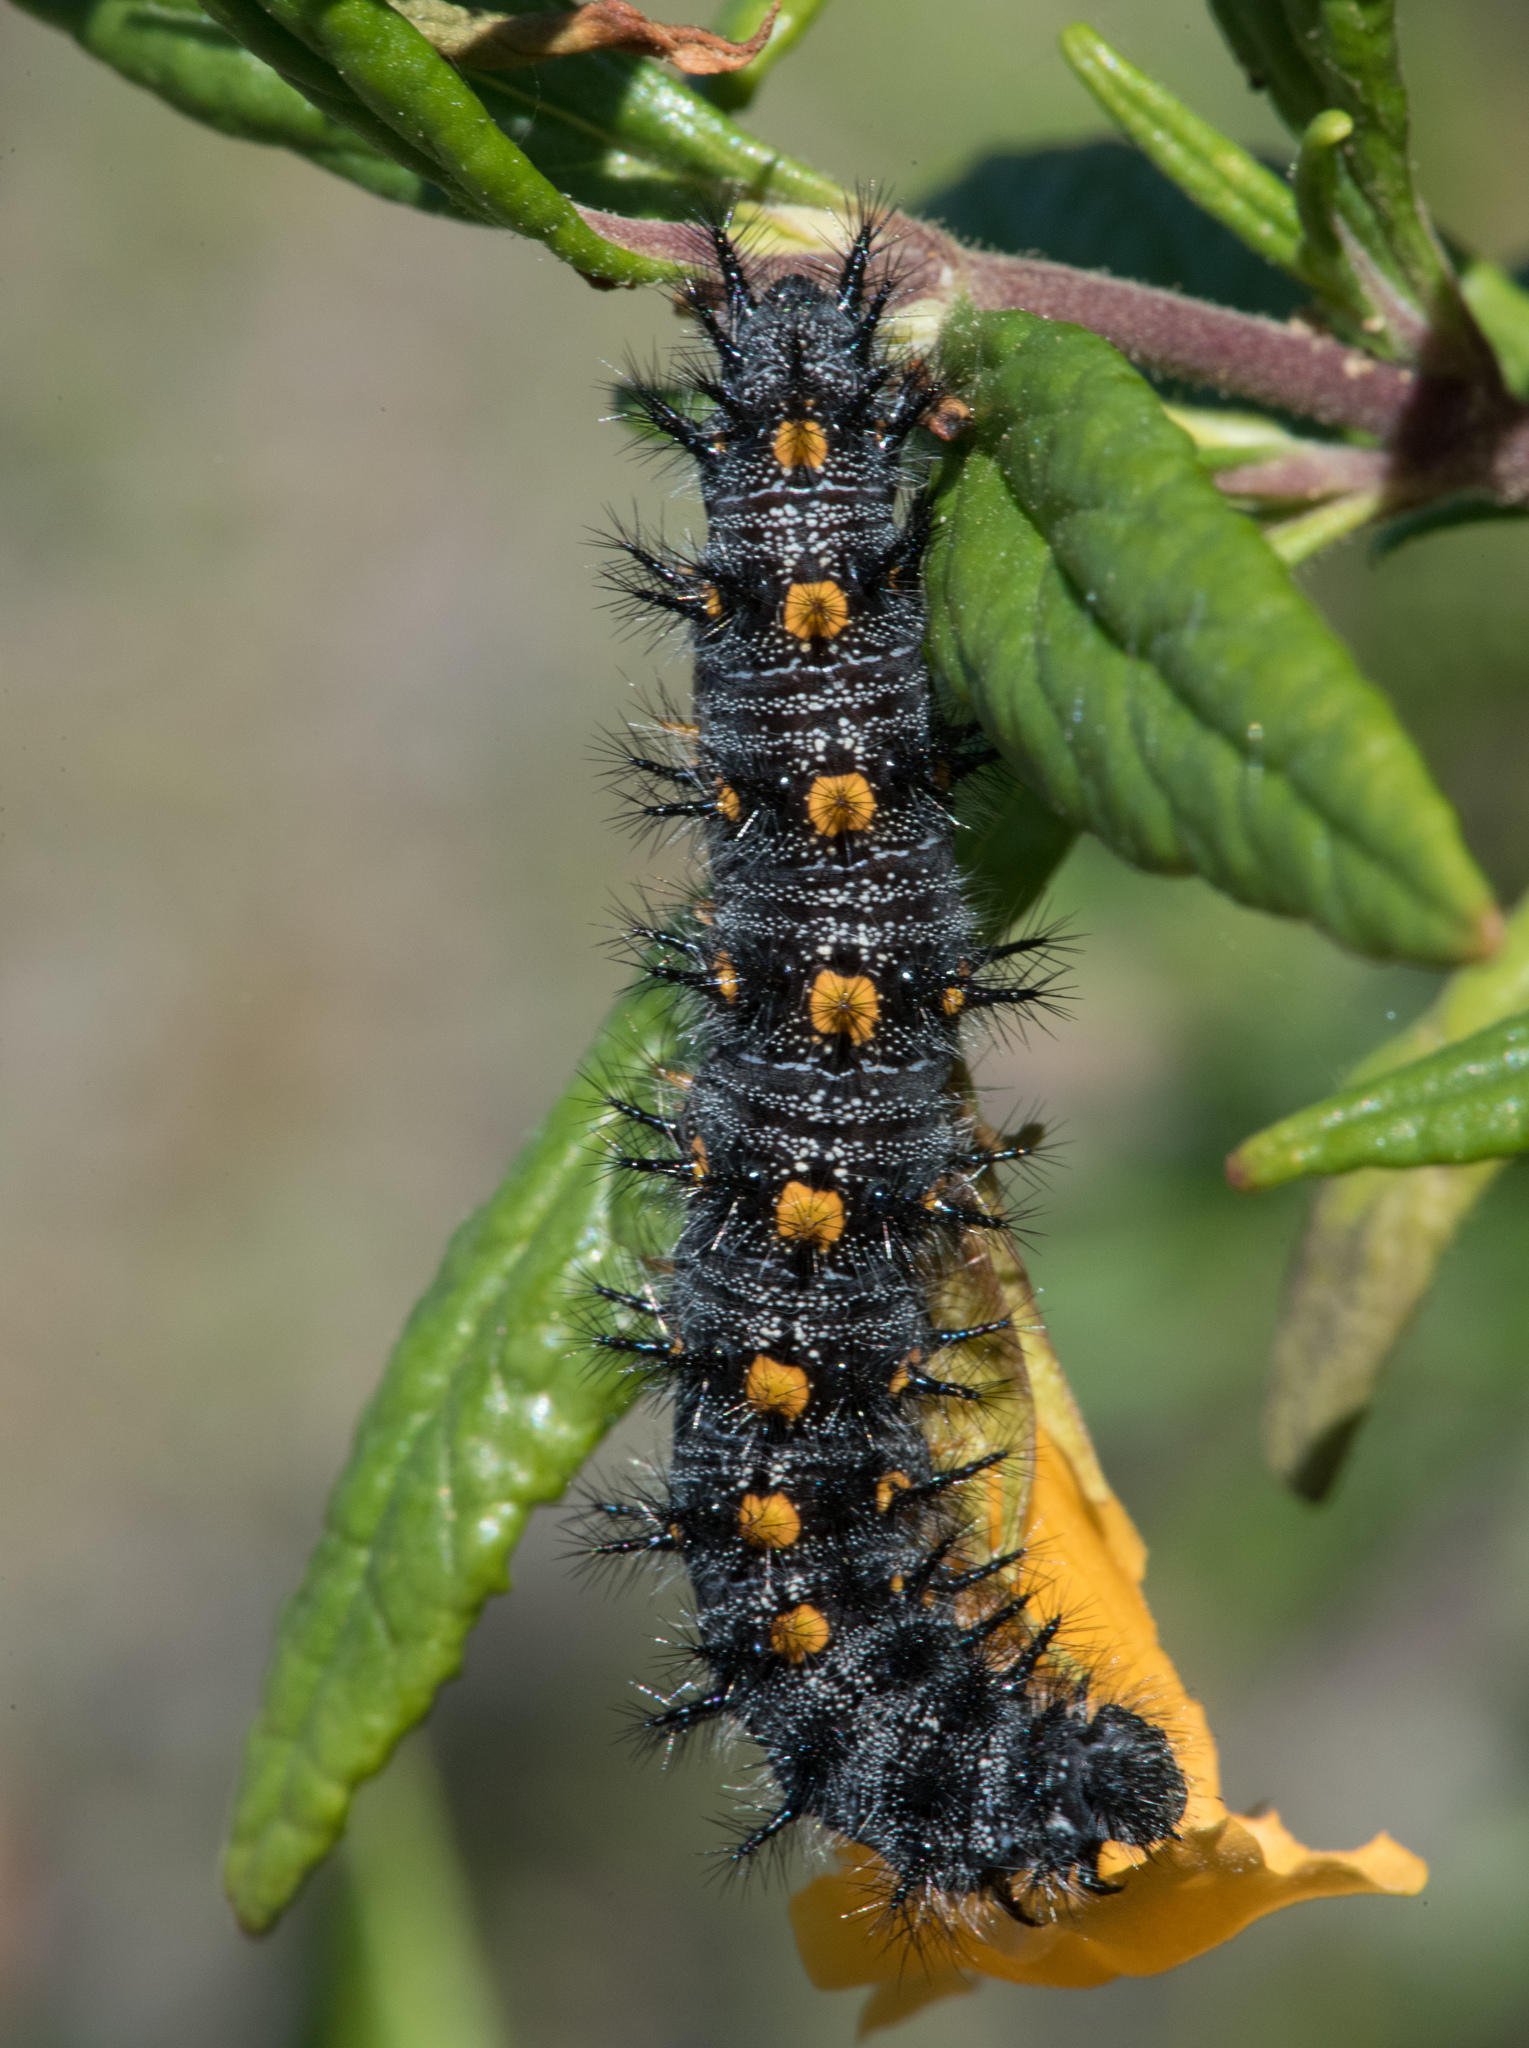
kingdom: Animalia
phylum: Arthropoda
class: Insecta
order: Lepidoptera
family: Nymphalidae
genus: Occidryas
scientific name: Occidryas chalcedona
